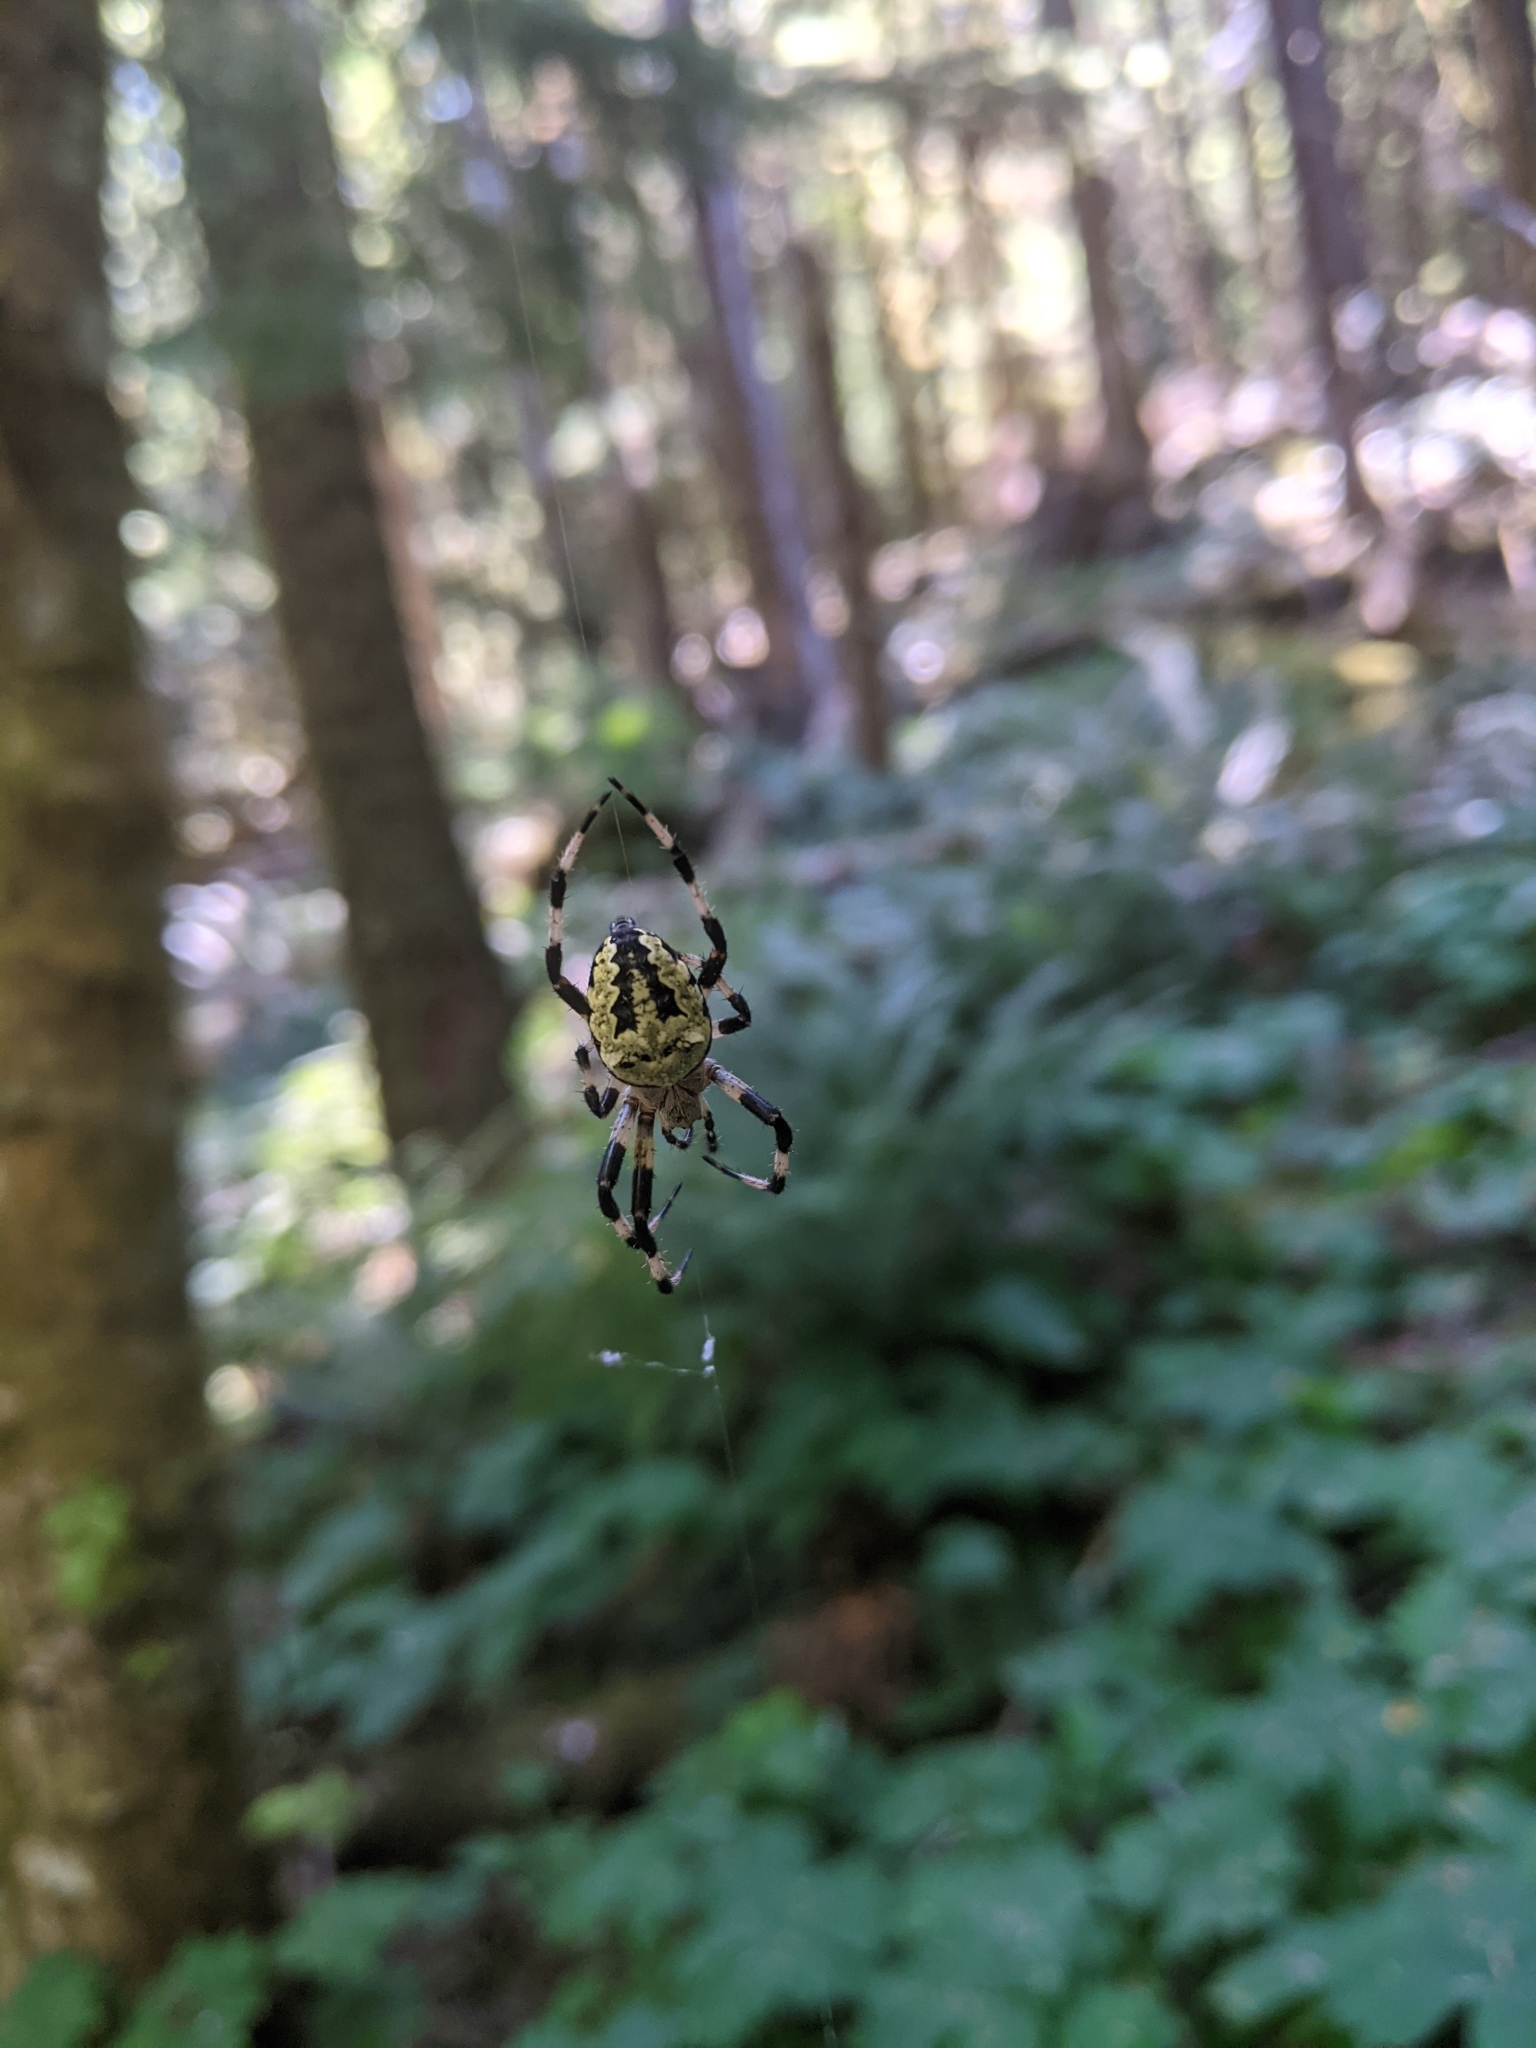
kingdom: Animalia
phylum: Arthropoda
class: Arachnida
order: Araneae
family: Araneidae
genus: Araneus
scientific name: Araneus nordmanni
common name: Nordmann's orbweaver
